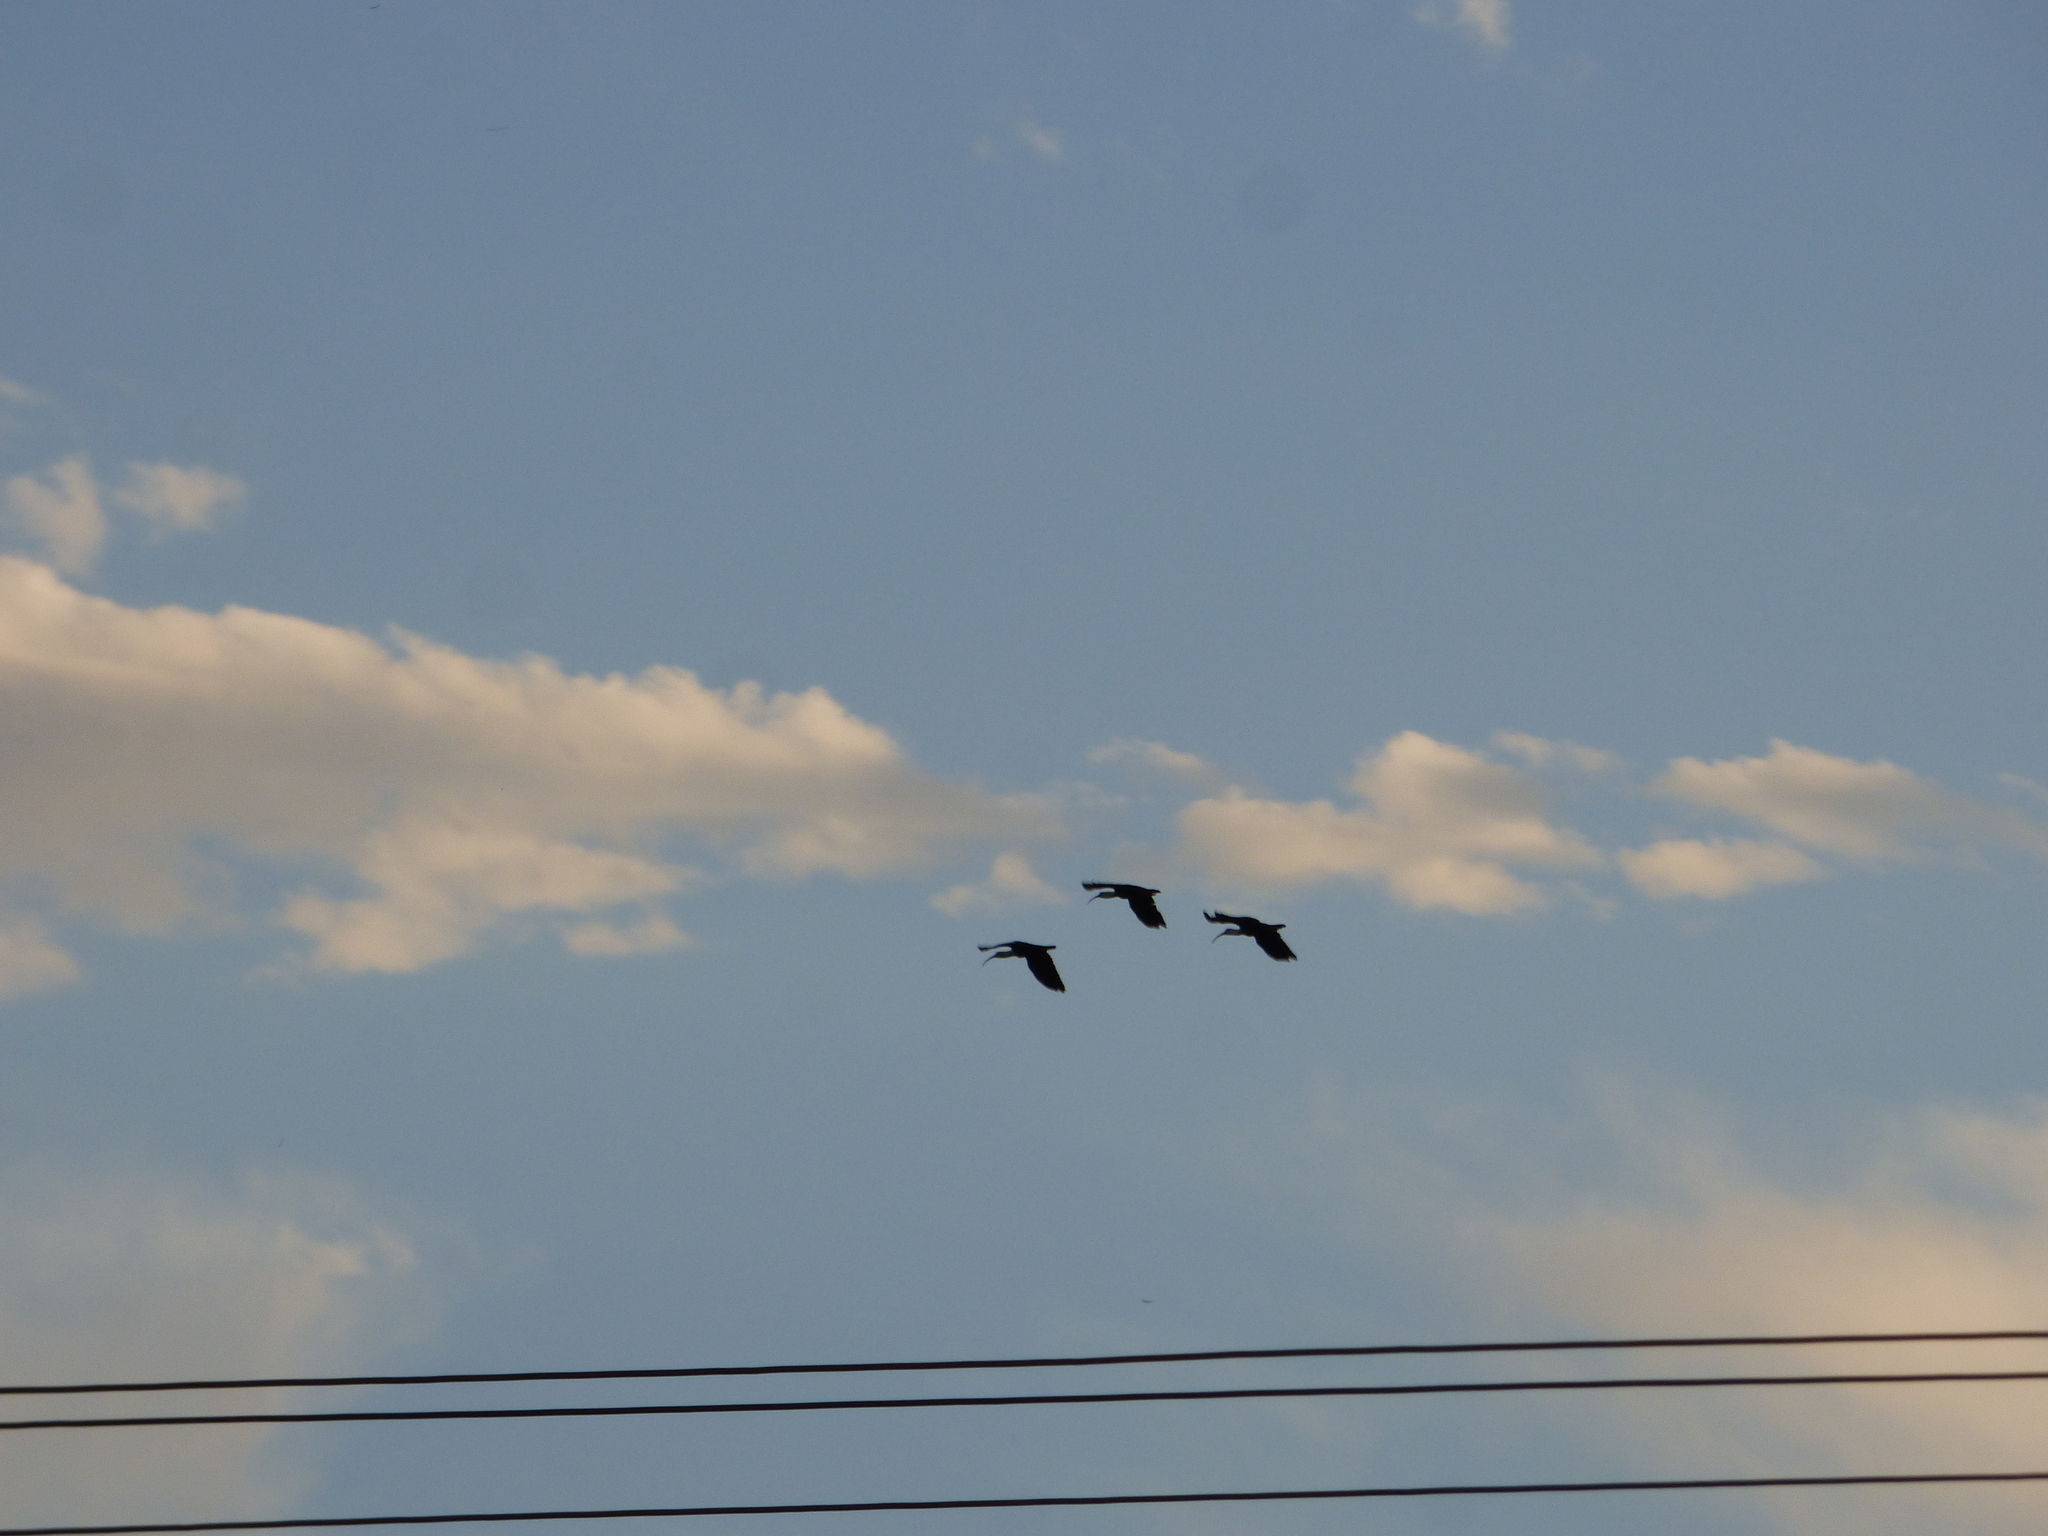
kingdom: Animalia
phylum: Chordata
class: Aves
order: Pelecaniformes
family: Threskiornithidae
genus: Theristicus
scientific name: Theristicus caudatus
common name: Buff-necked ibis
